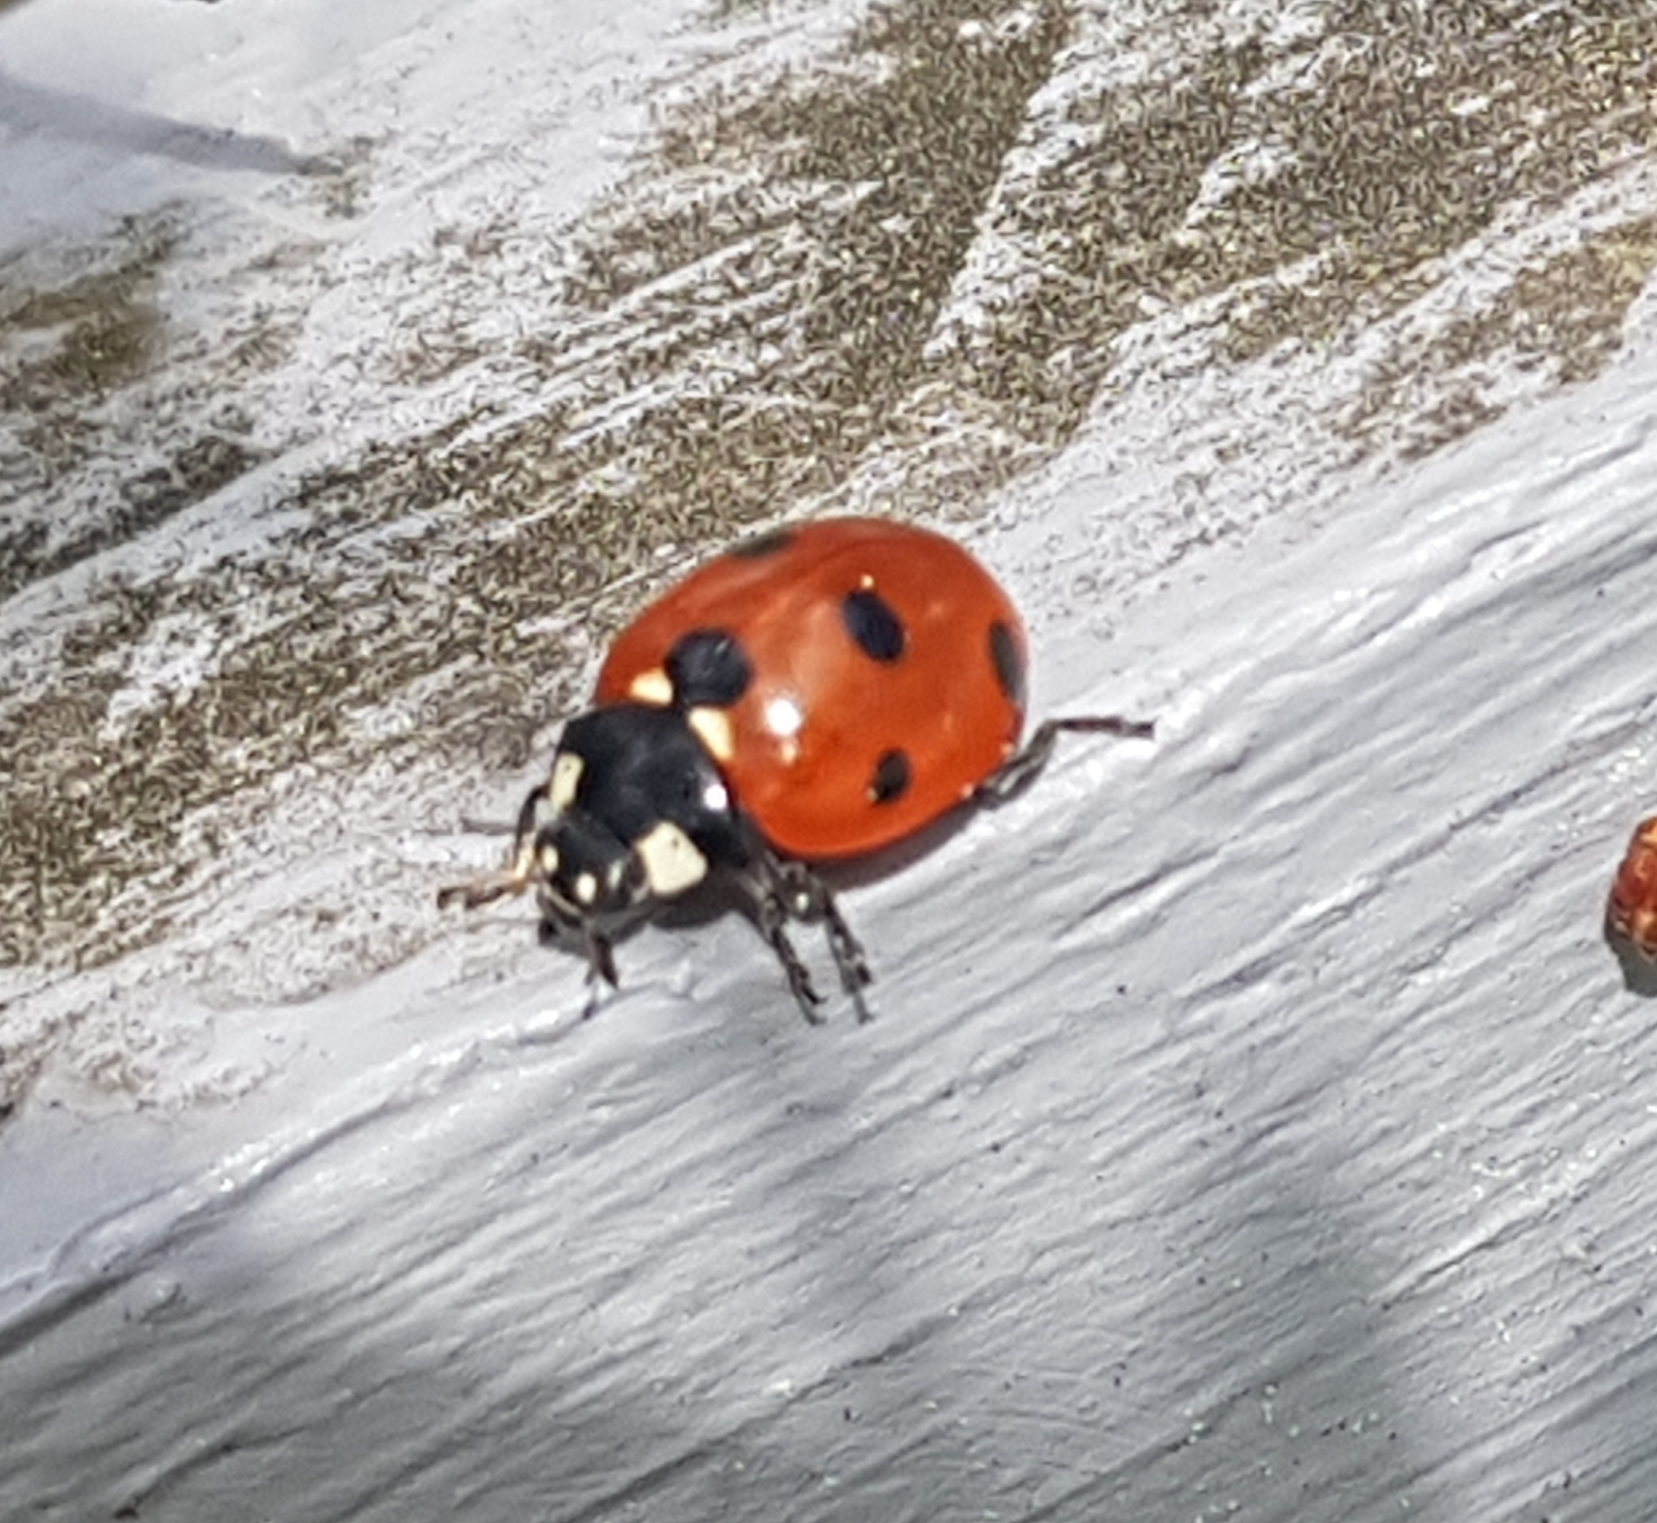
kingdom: Animalia
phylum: Arthropoda
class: Insecta
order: Coleoptera
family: Coccinellidae
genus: Coccinella
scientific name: Coccinella septempunctata
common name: Sevenspotted lady beetle
